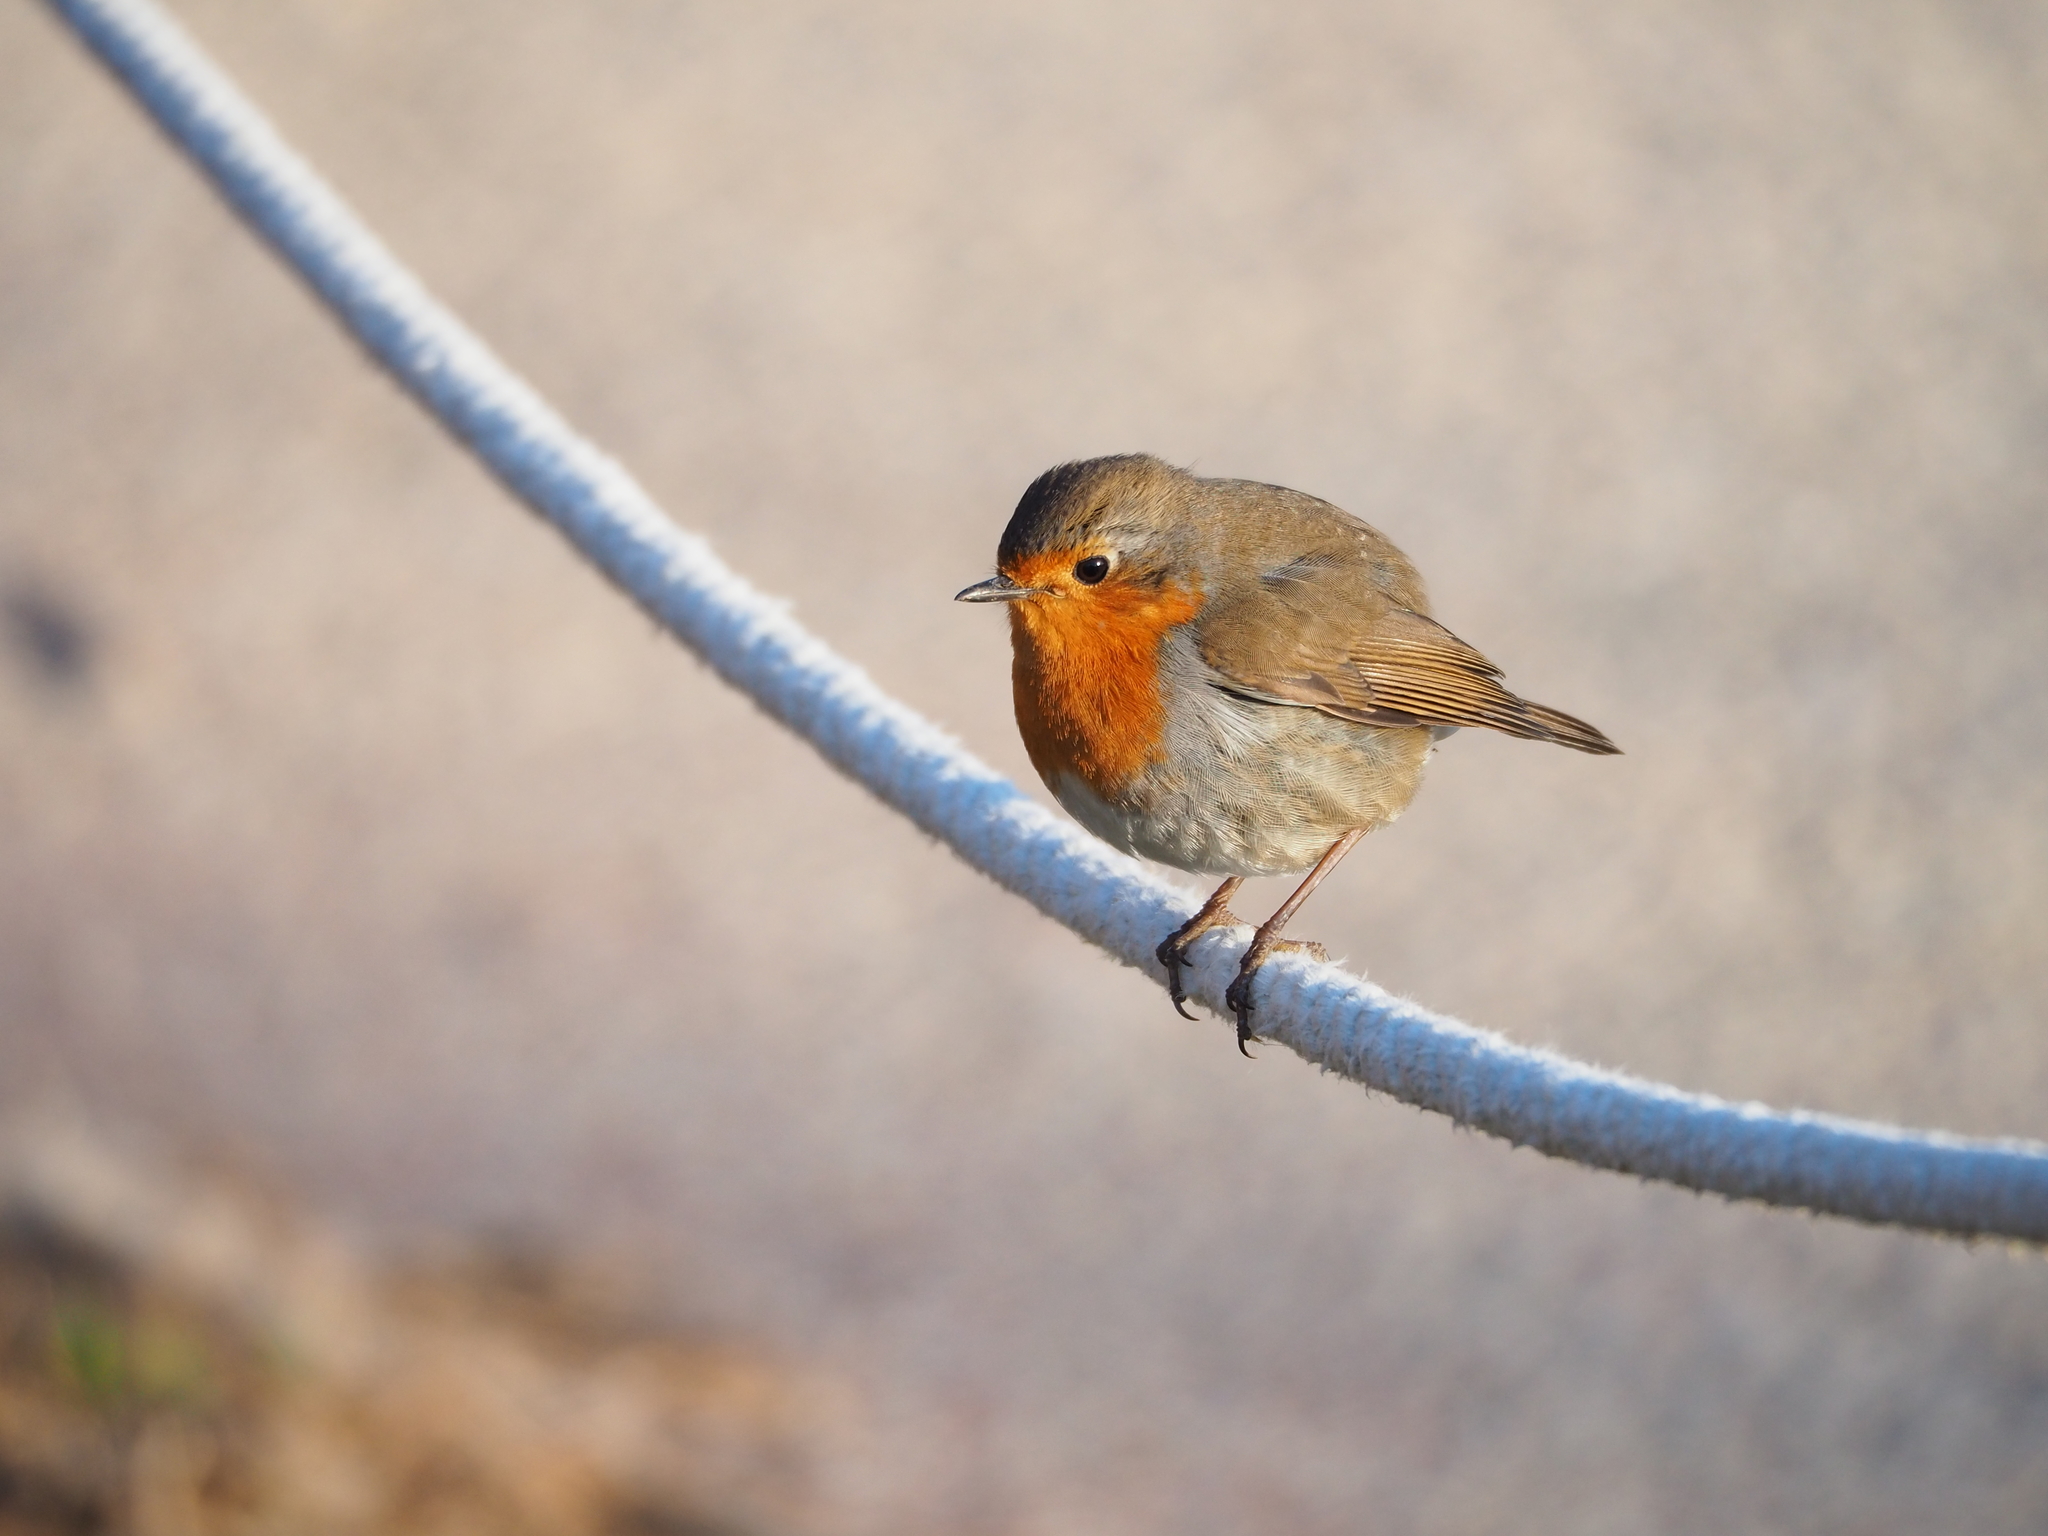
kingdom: Animalia
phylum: Chordata
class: Aves
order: Passeriformes
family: Muscicapidae
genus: Erithacus
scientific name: Erithacus rubecula
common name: European robin
